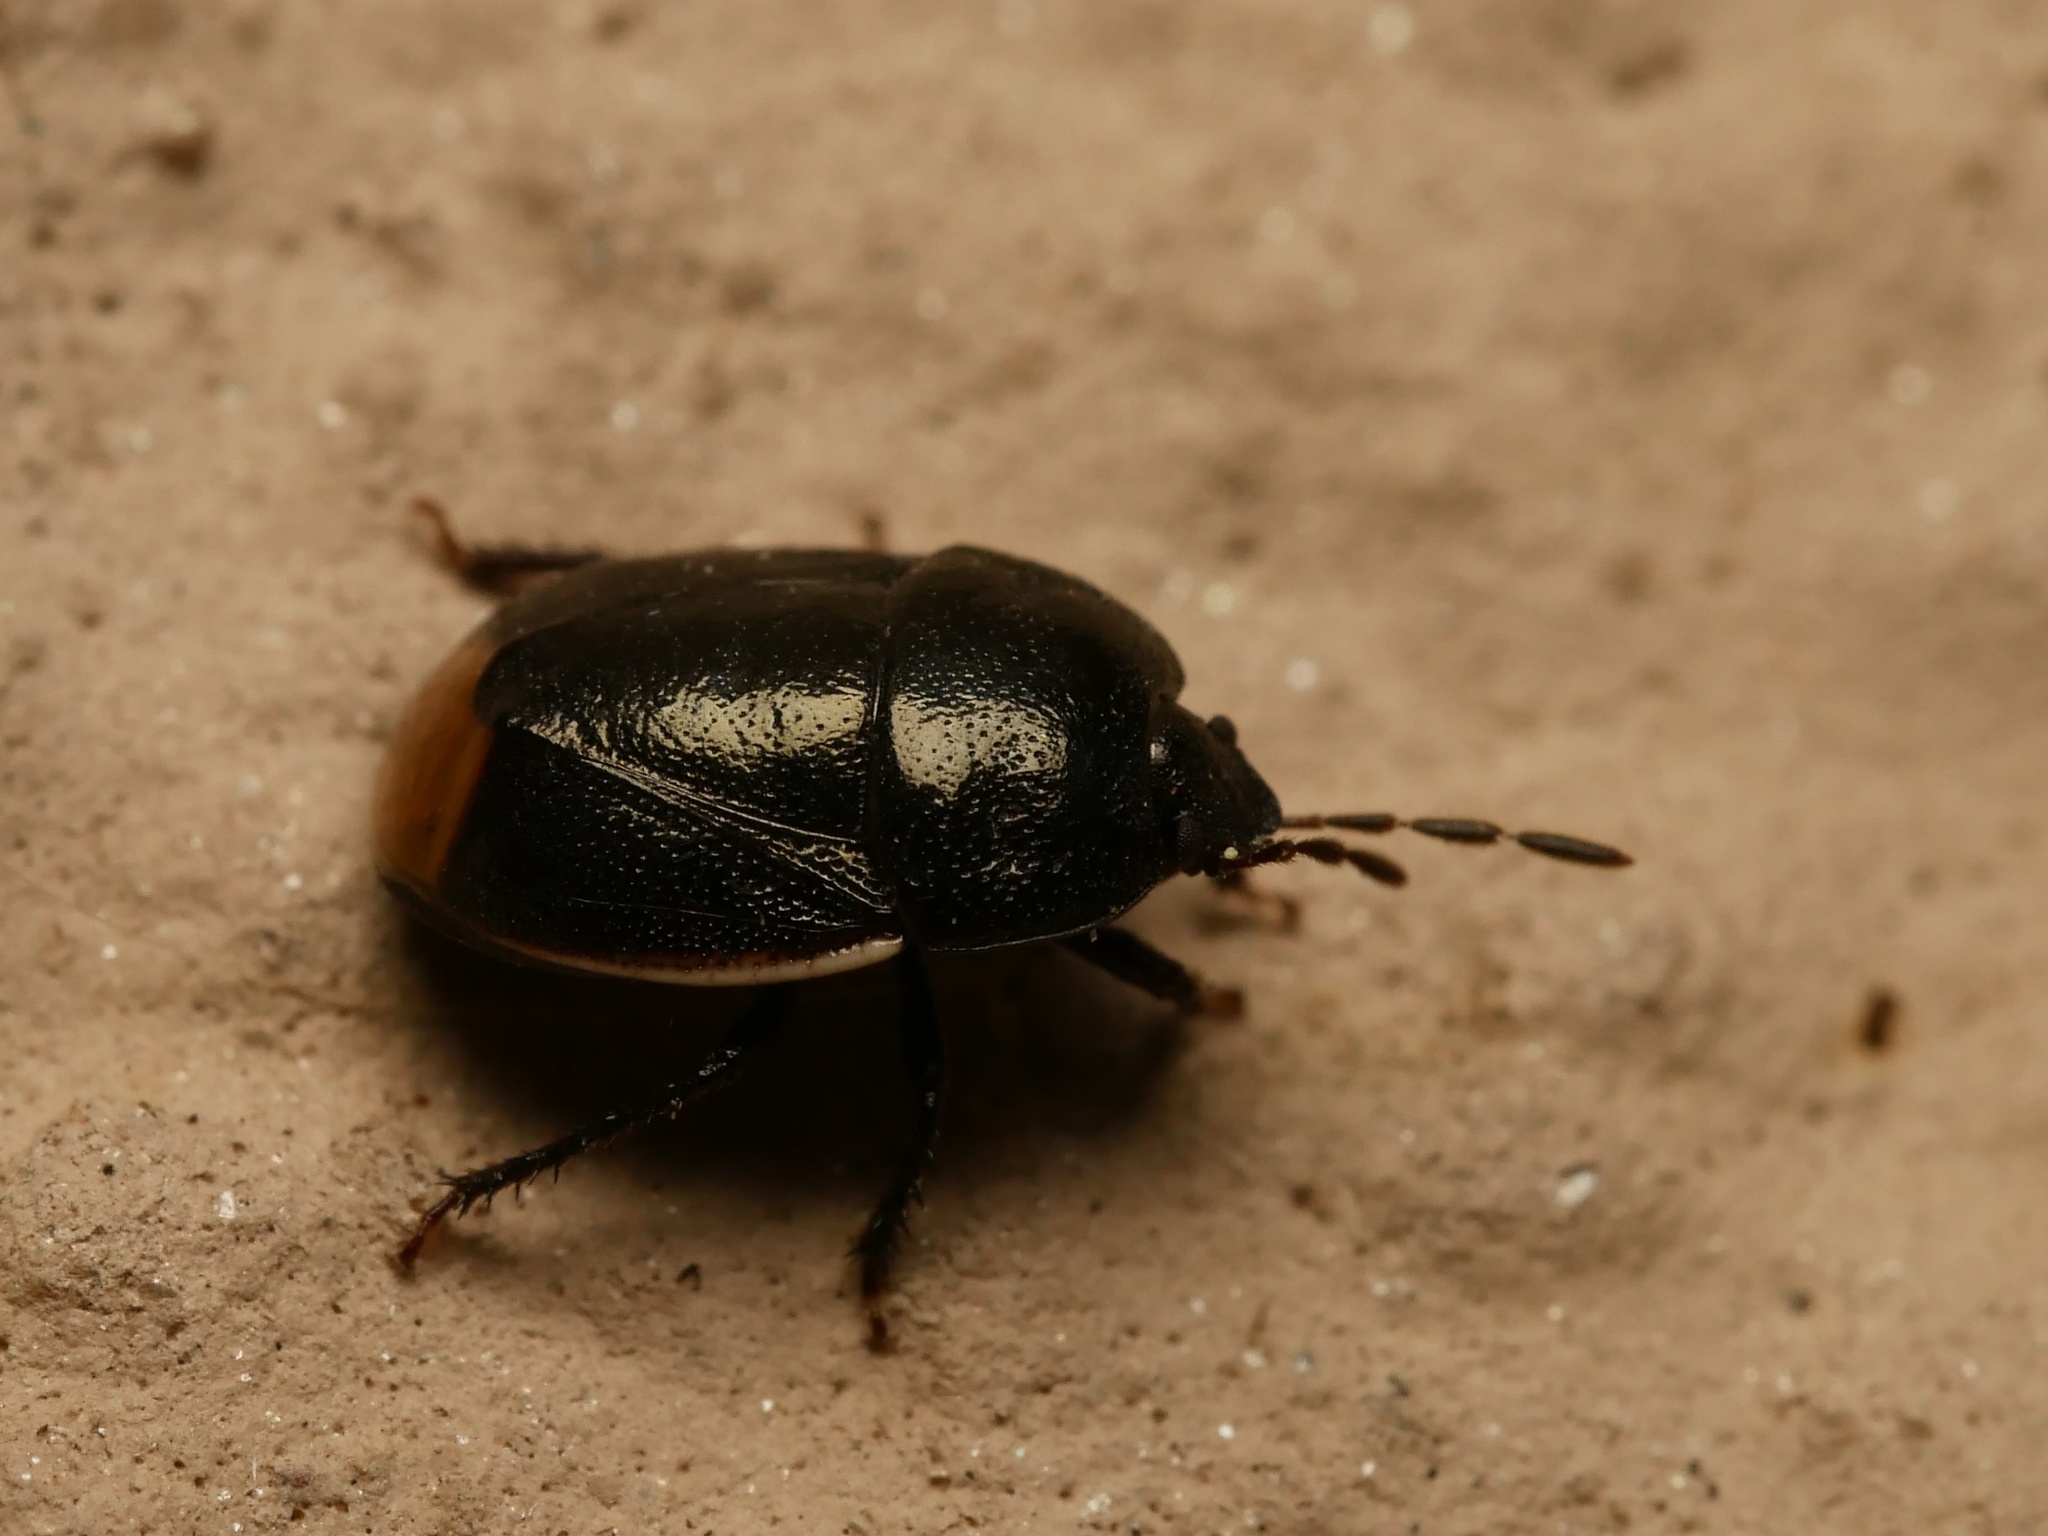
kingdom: Animalia
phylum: Arthropoda
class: Insecta
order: Hemiptera
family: Cydnidae
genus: Legnotus
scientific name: Legnotus limbosus
